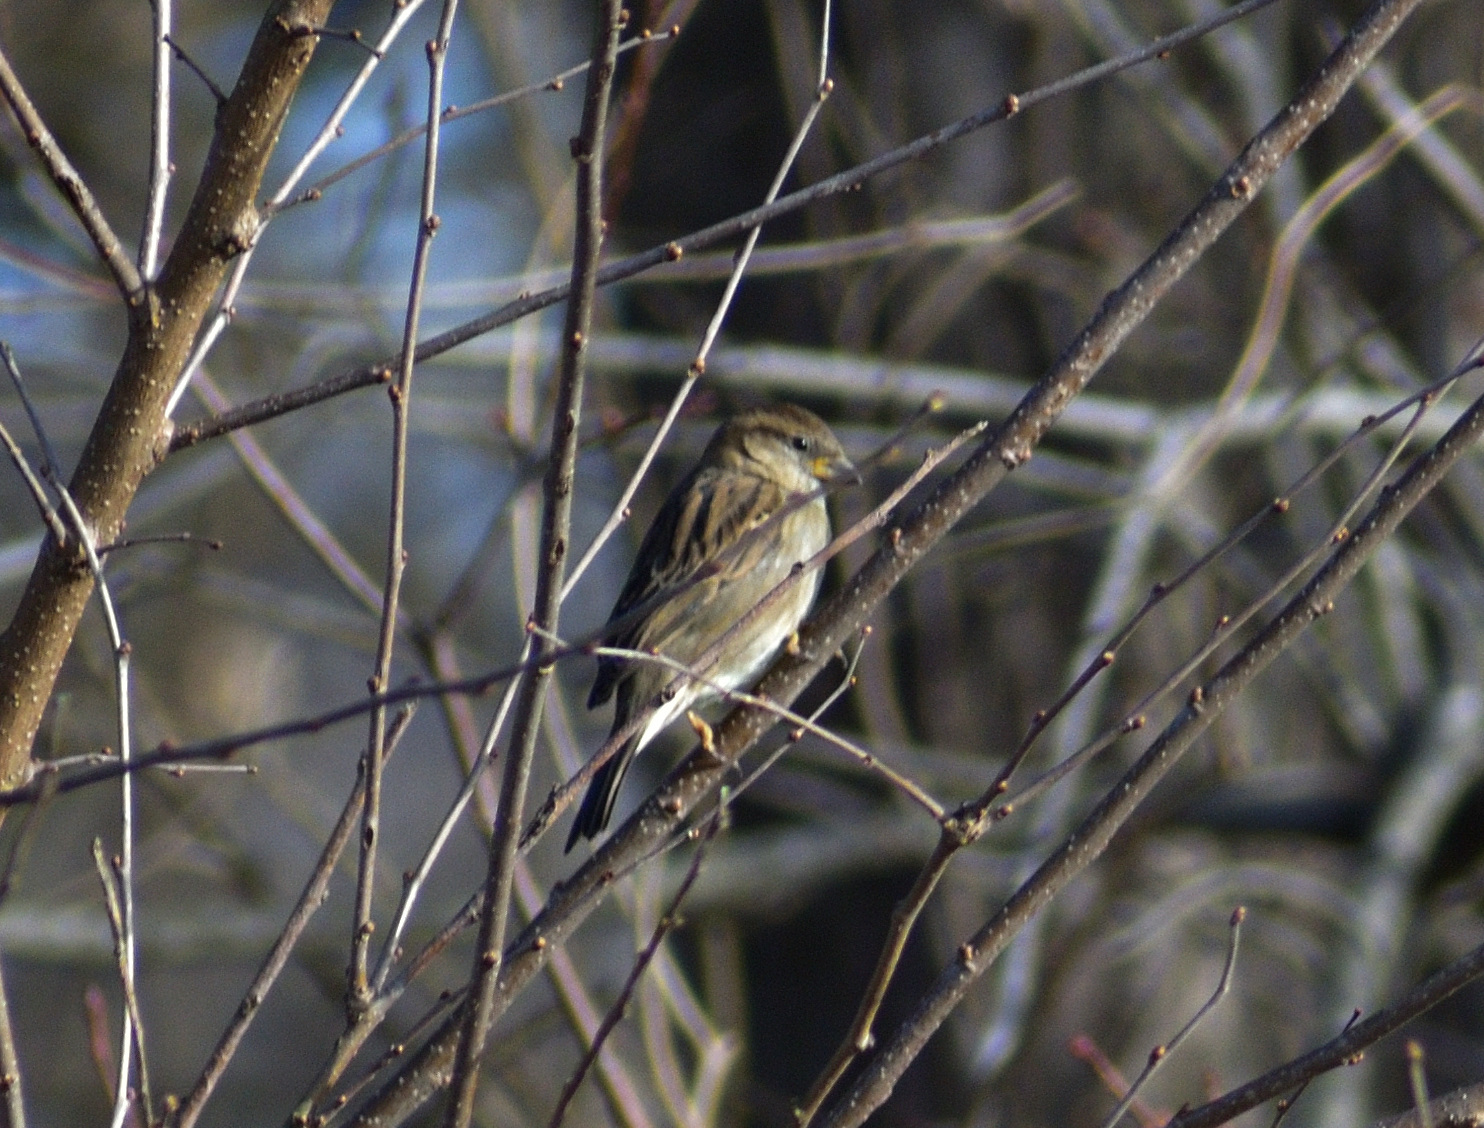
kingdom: Animalia
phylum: Chordata
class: Aves
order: Passeriformes
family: Passeridae
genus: Passer
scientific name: Passer domesticus
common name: House sparrow
